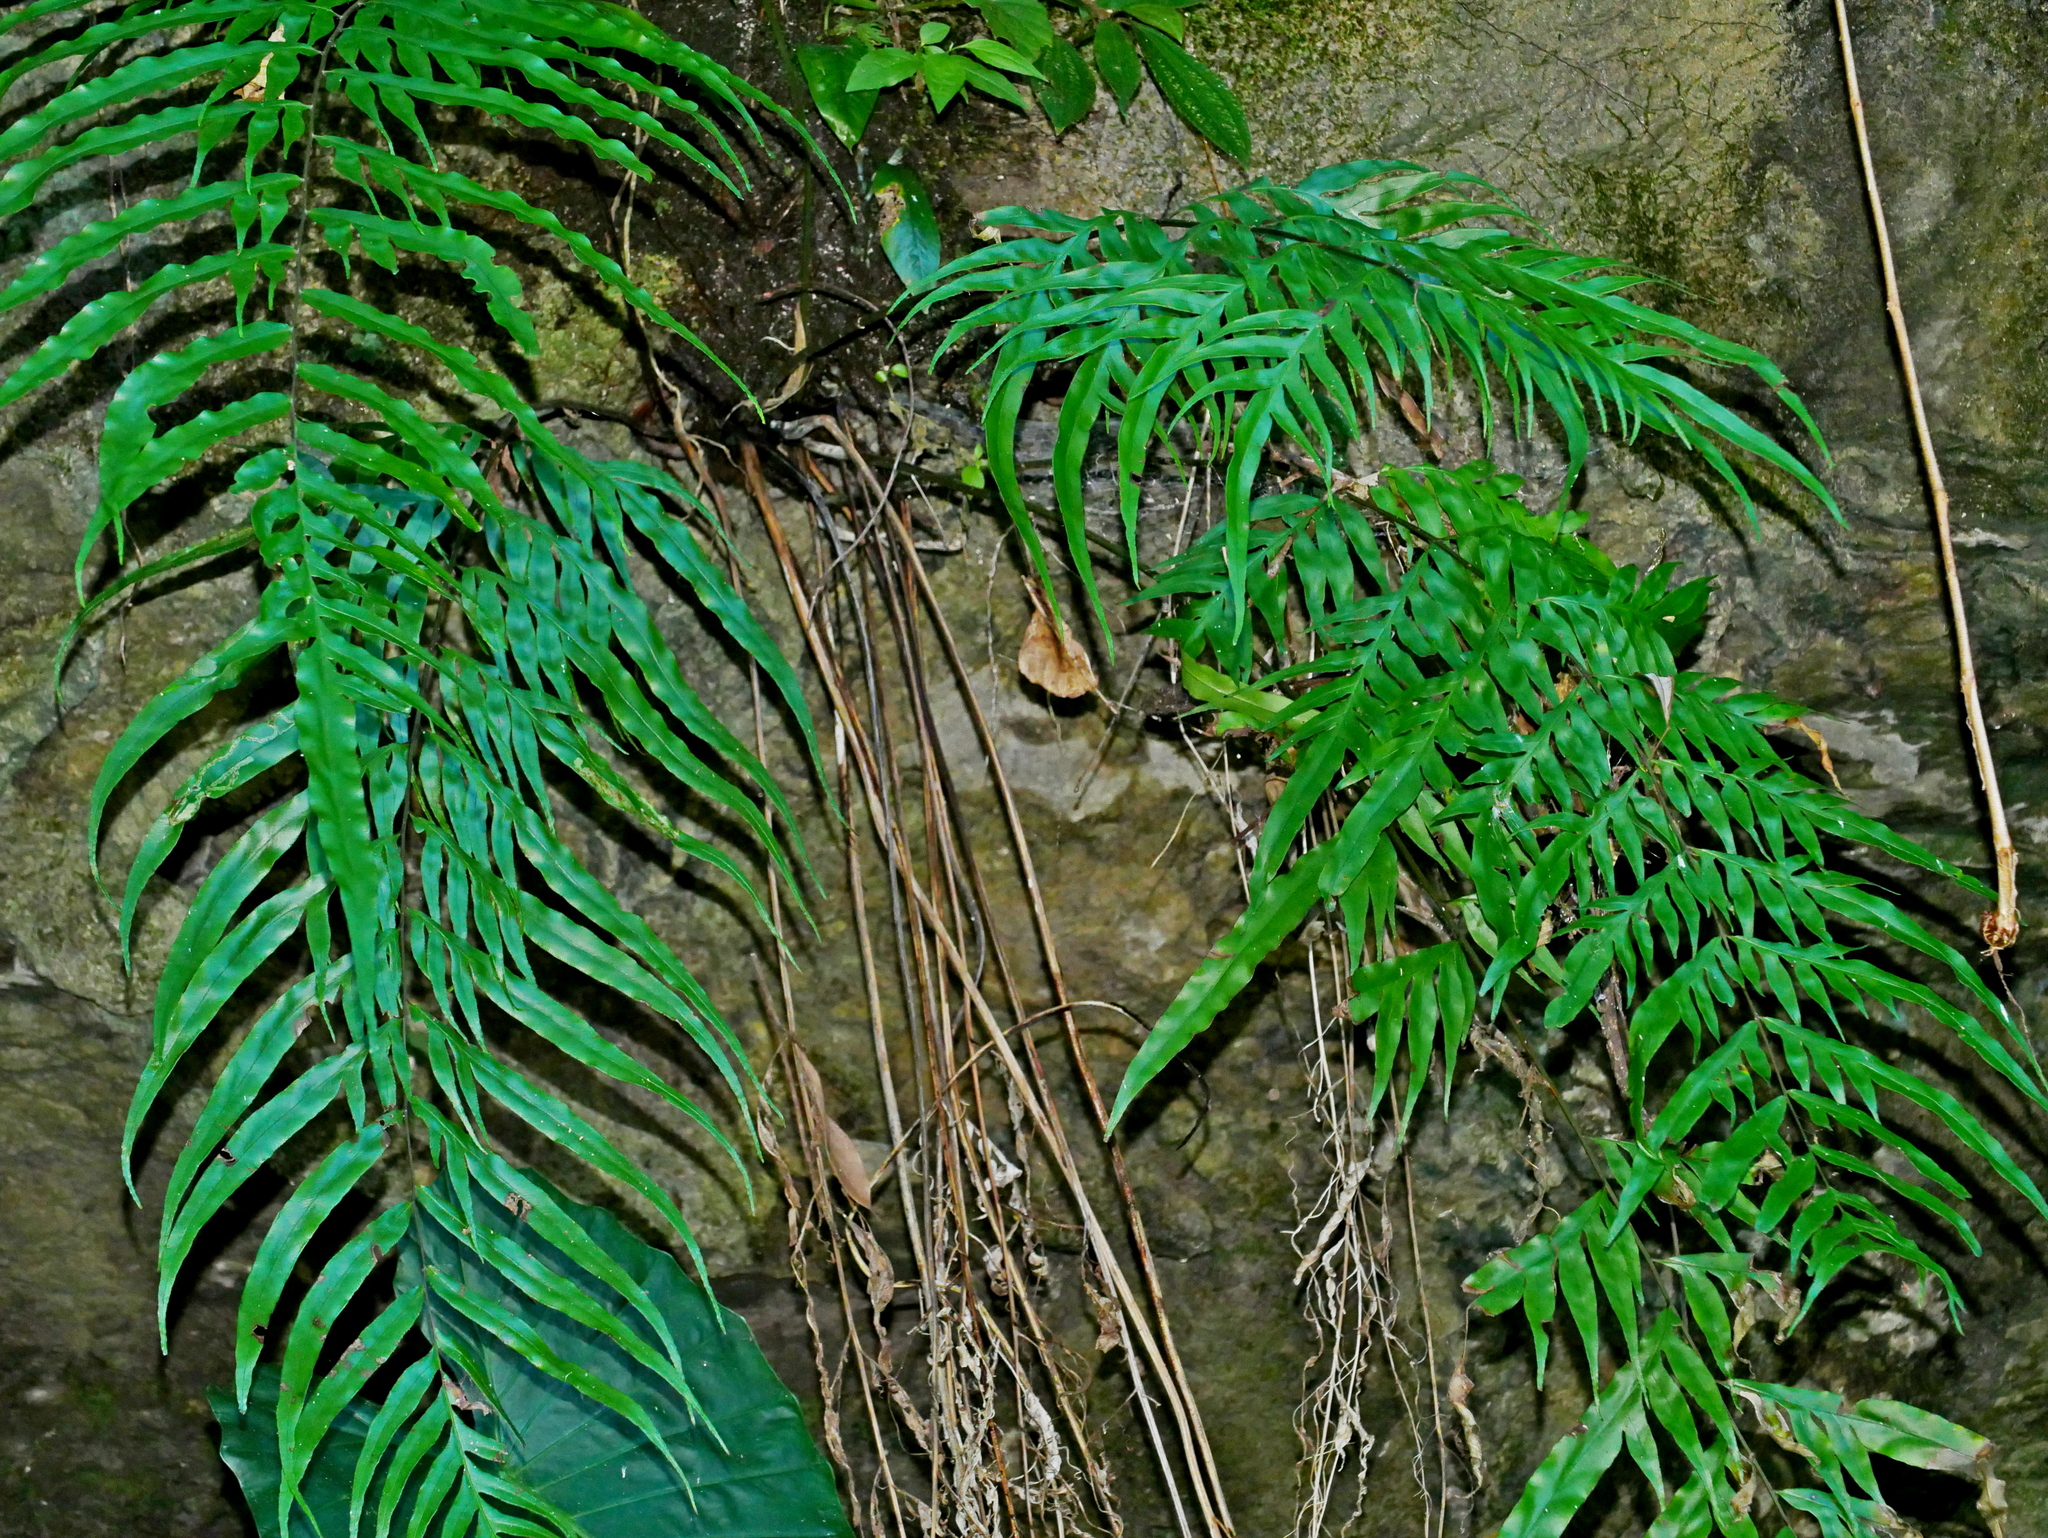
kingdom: Plantae
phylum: Tracheophyta
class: Polypodiopsida
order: Polypodiales
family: Pteridaceae
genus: Pteris
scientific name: Pteris formosana
